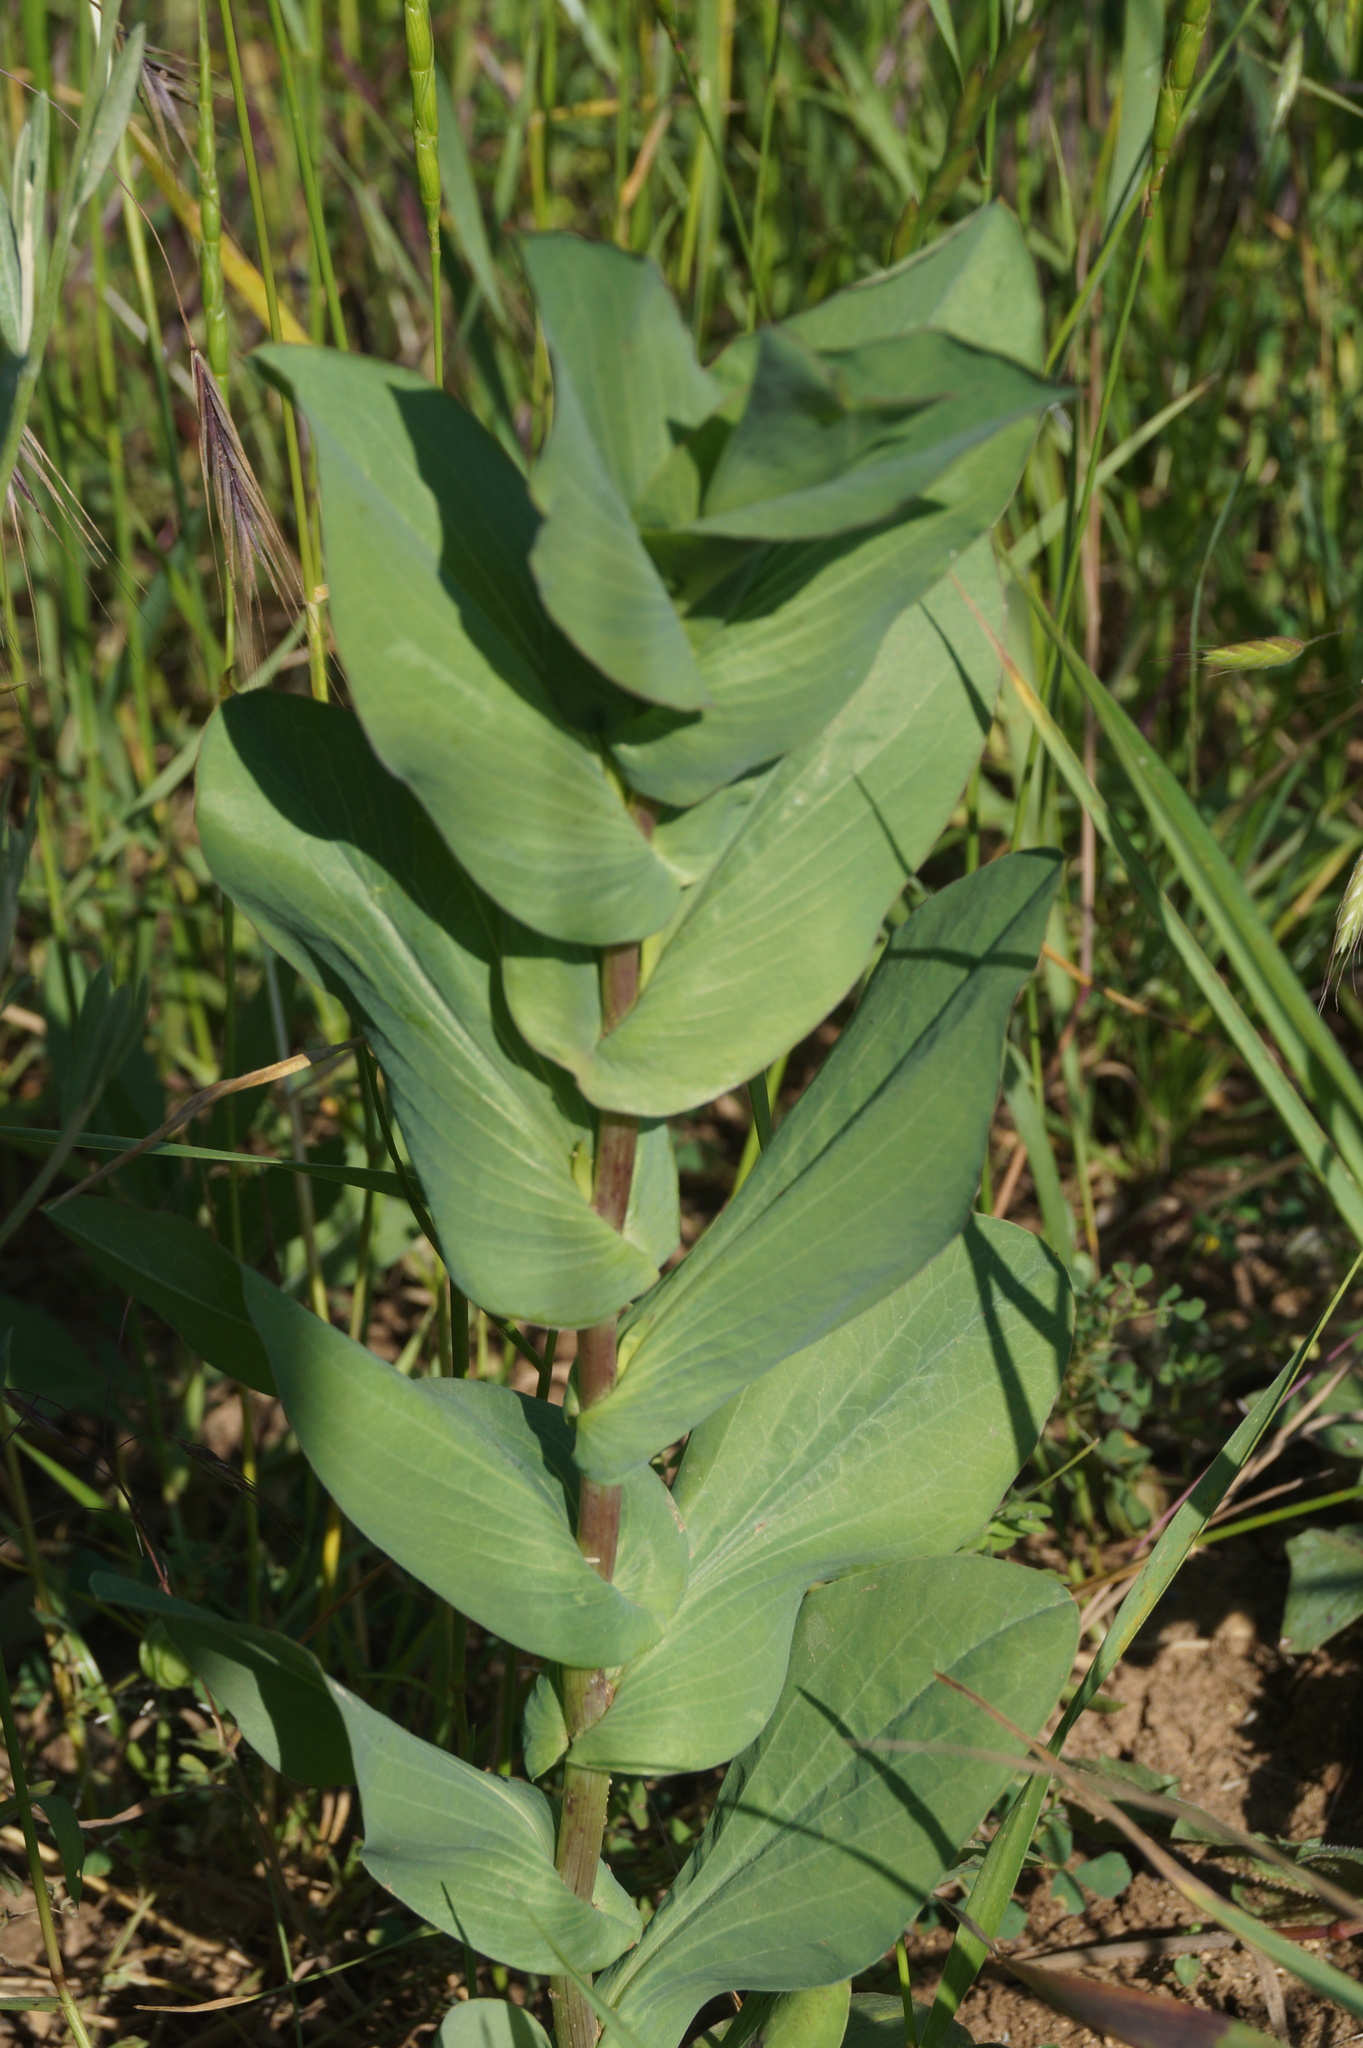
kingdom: Plantae
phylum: Tracheophyta
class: Magnoliopsida
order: Apiales
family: Apiaceae
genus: Bupleurum
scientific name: Bupleurum rotundifolium
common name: Thorow-wax
